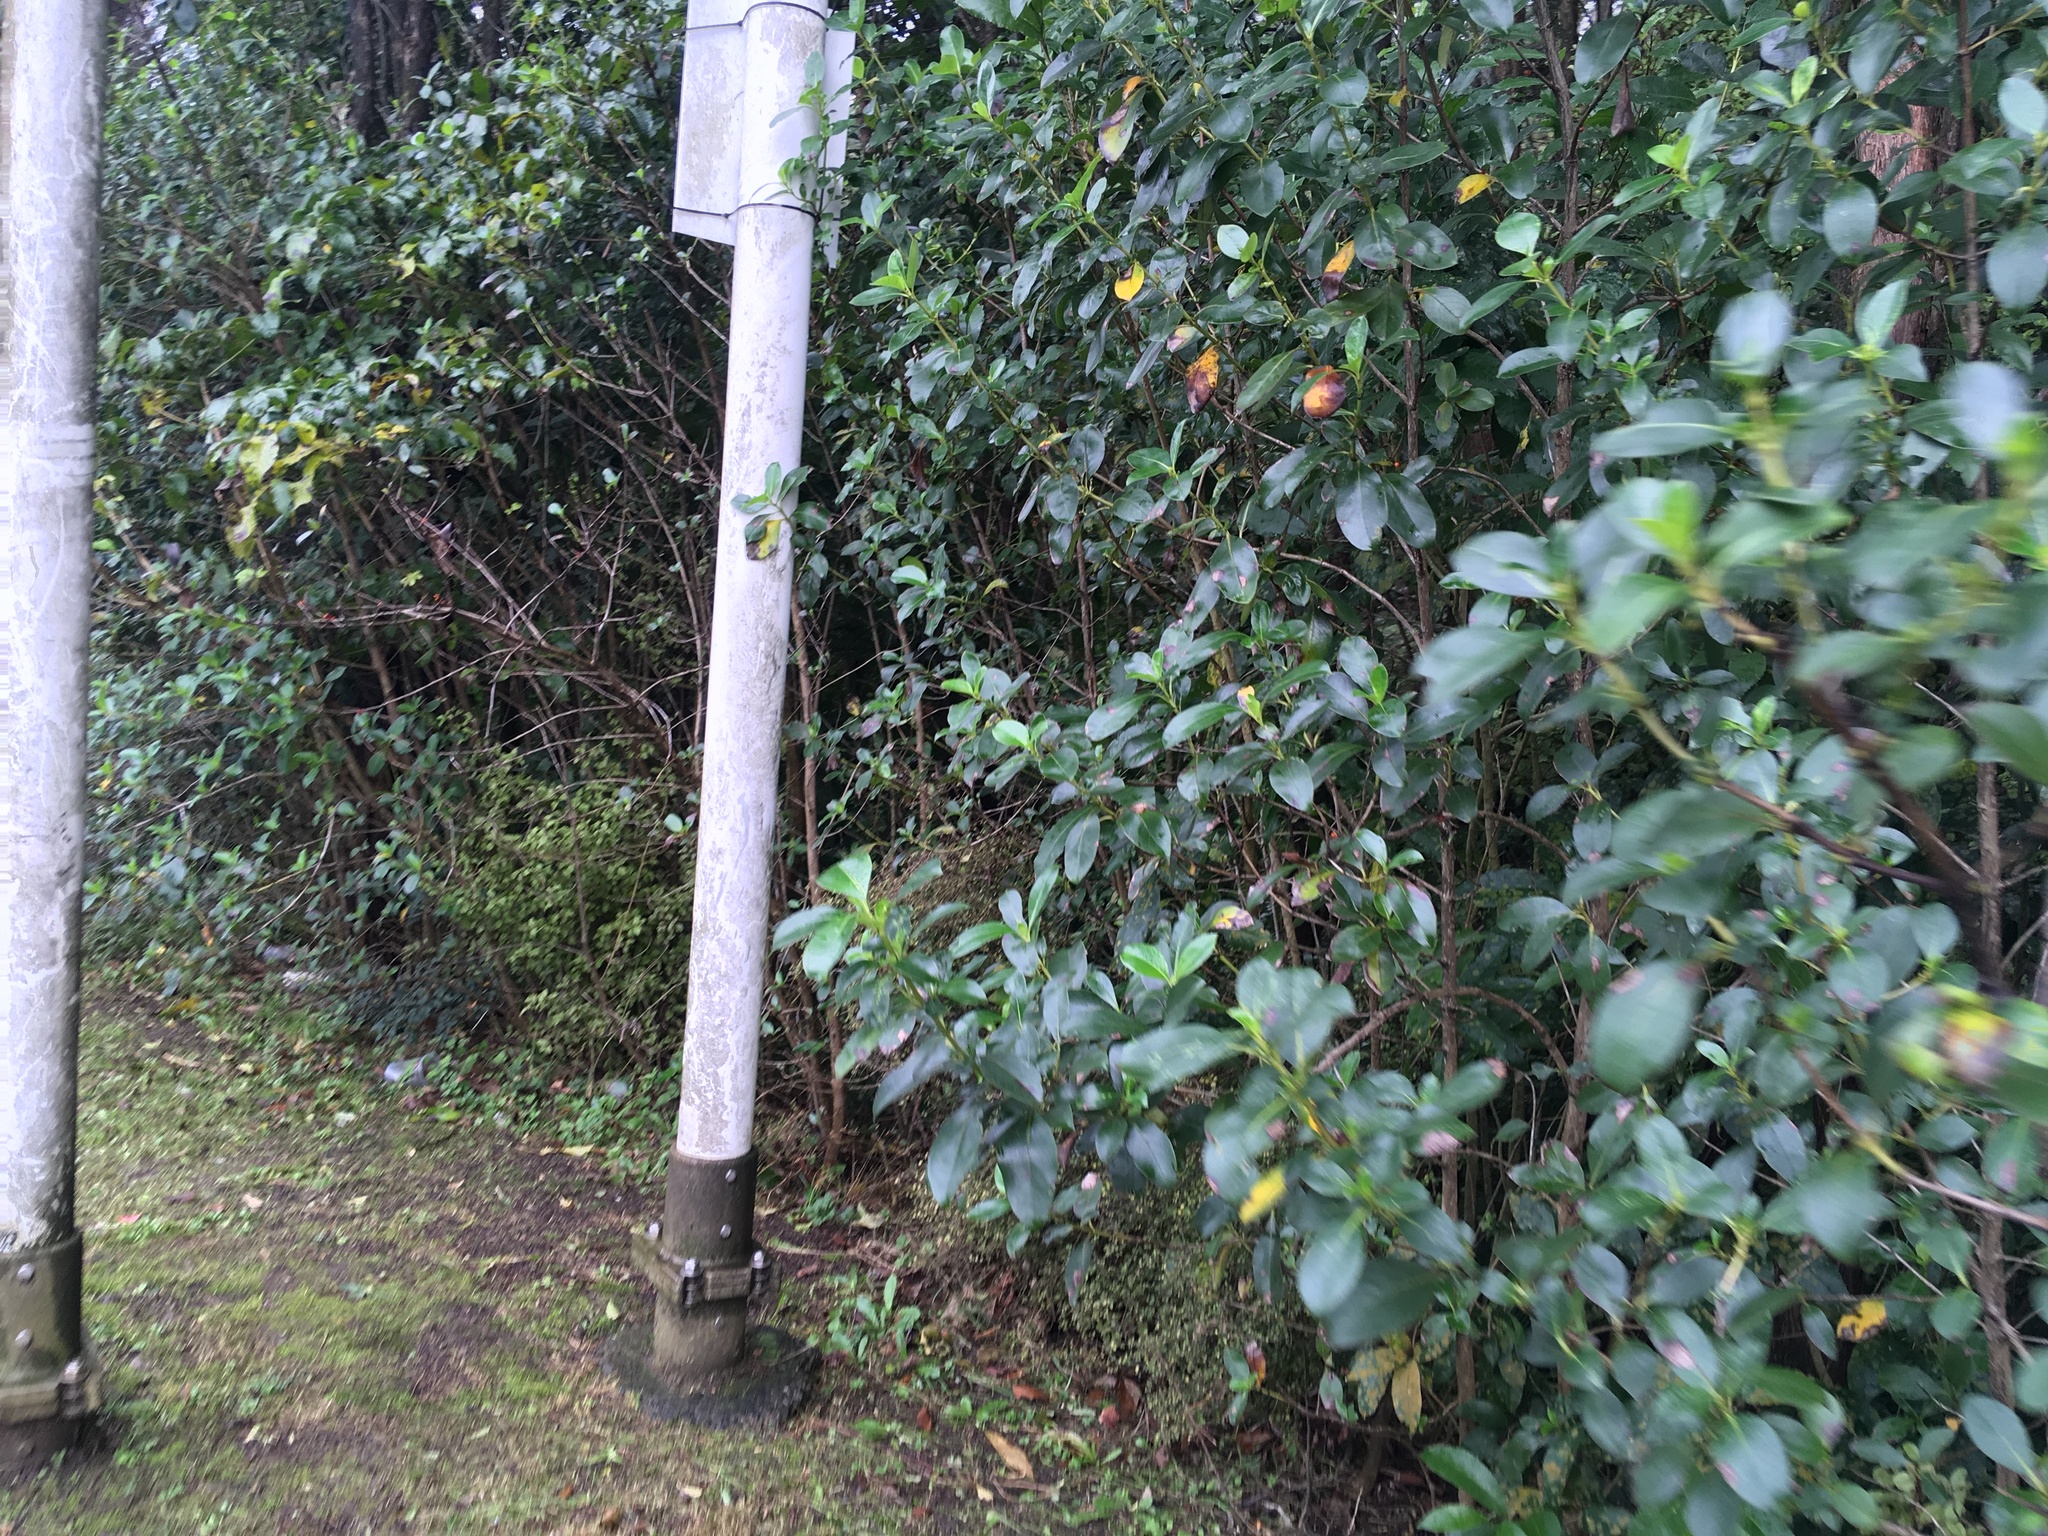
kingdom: Plantae
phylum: Tracheophyta
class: Magnoliopsida
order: Gentianales
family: Rubiaceae
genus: Coprosma
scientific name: Coprosma robusta
